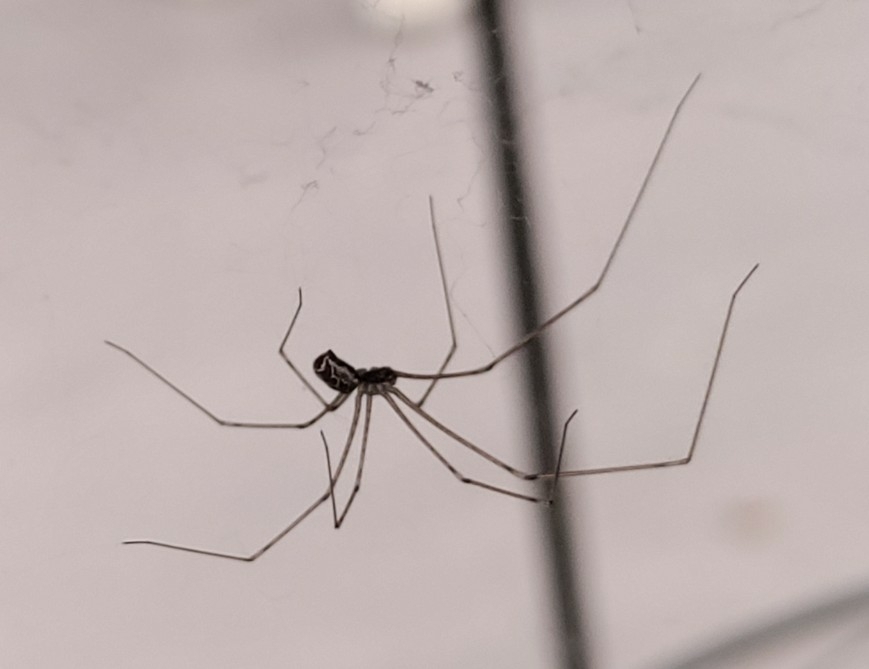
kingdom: Animalia
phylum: Arthropoda
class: Arachnida
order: Araneae
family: Pholcidae
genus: Holocnemus
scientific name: Holocnemus pluchei
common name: Marbled cellar spider
